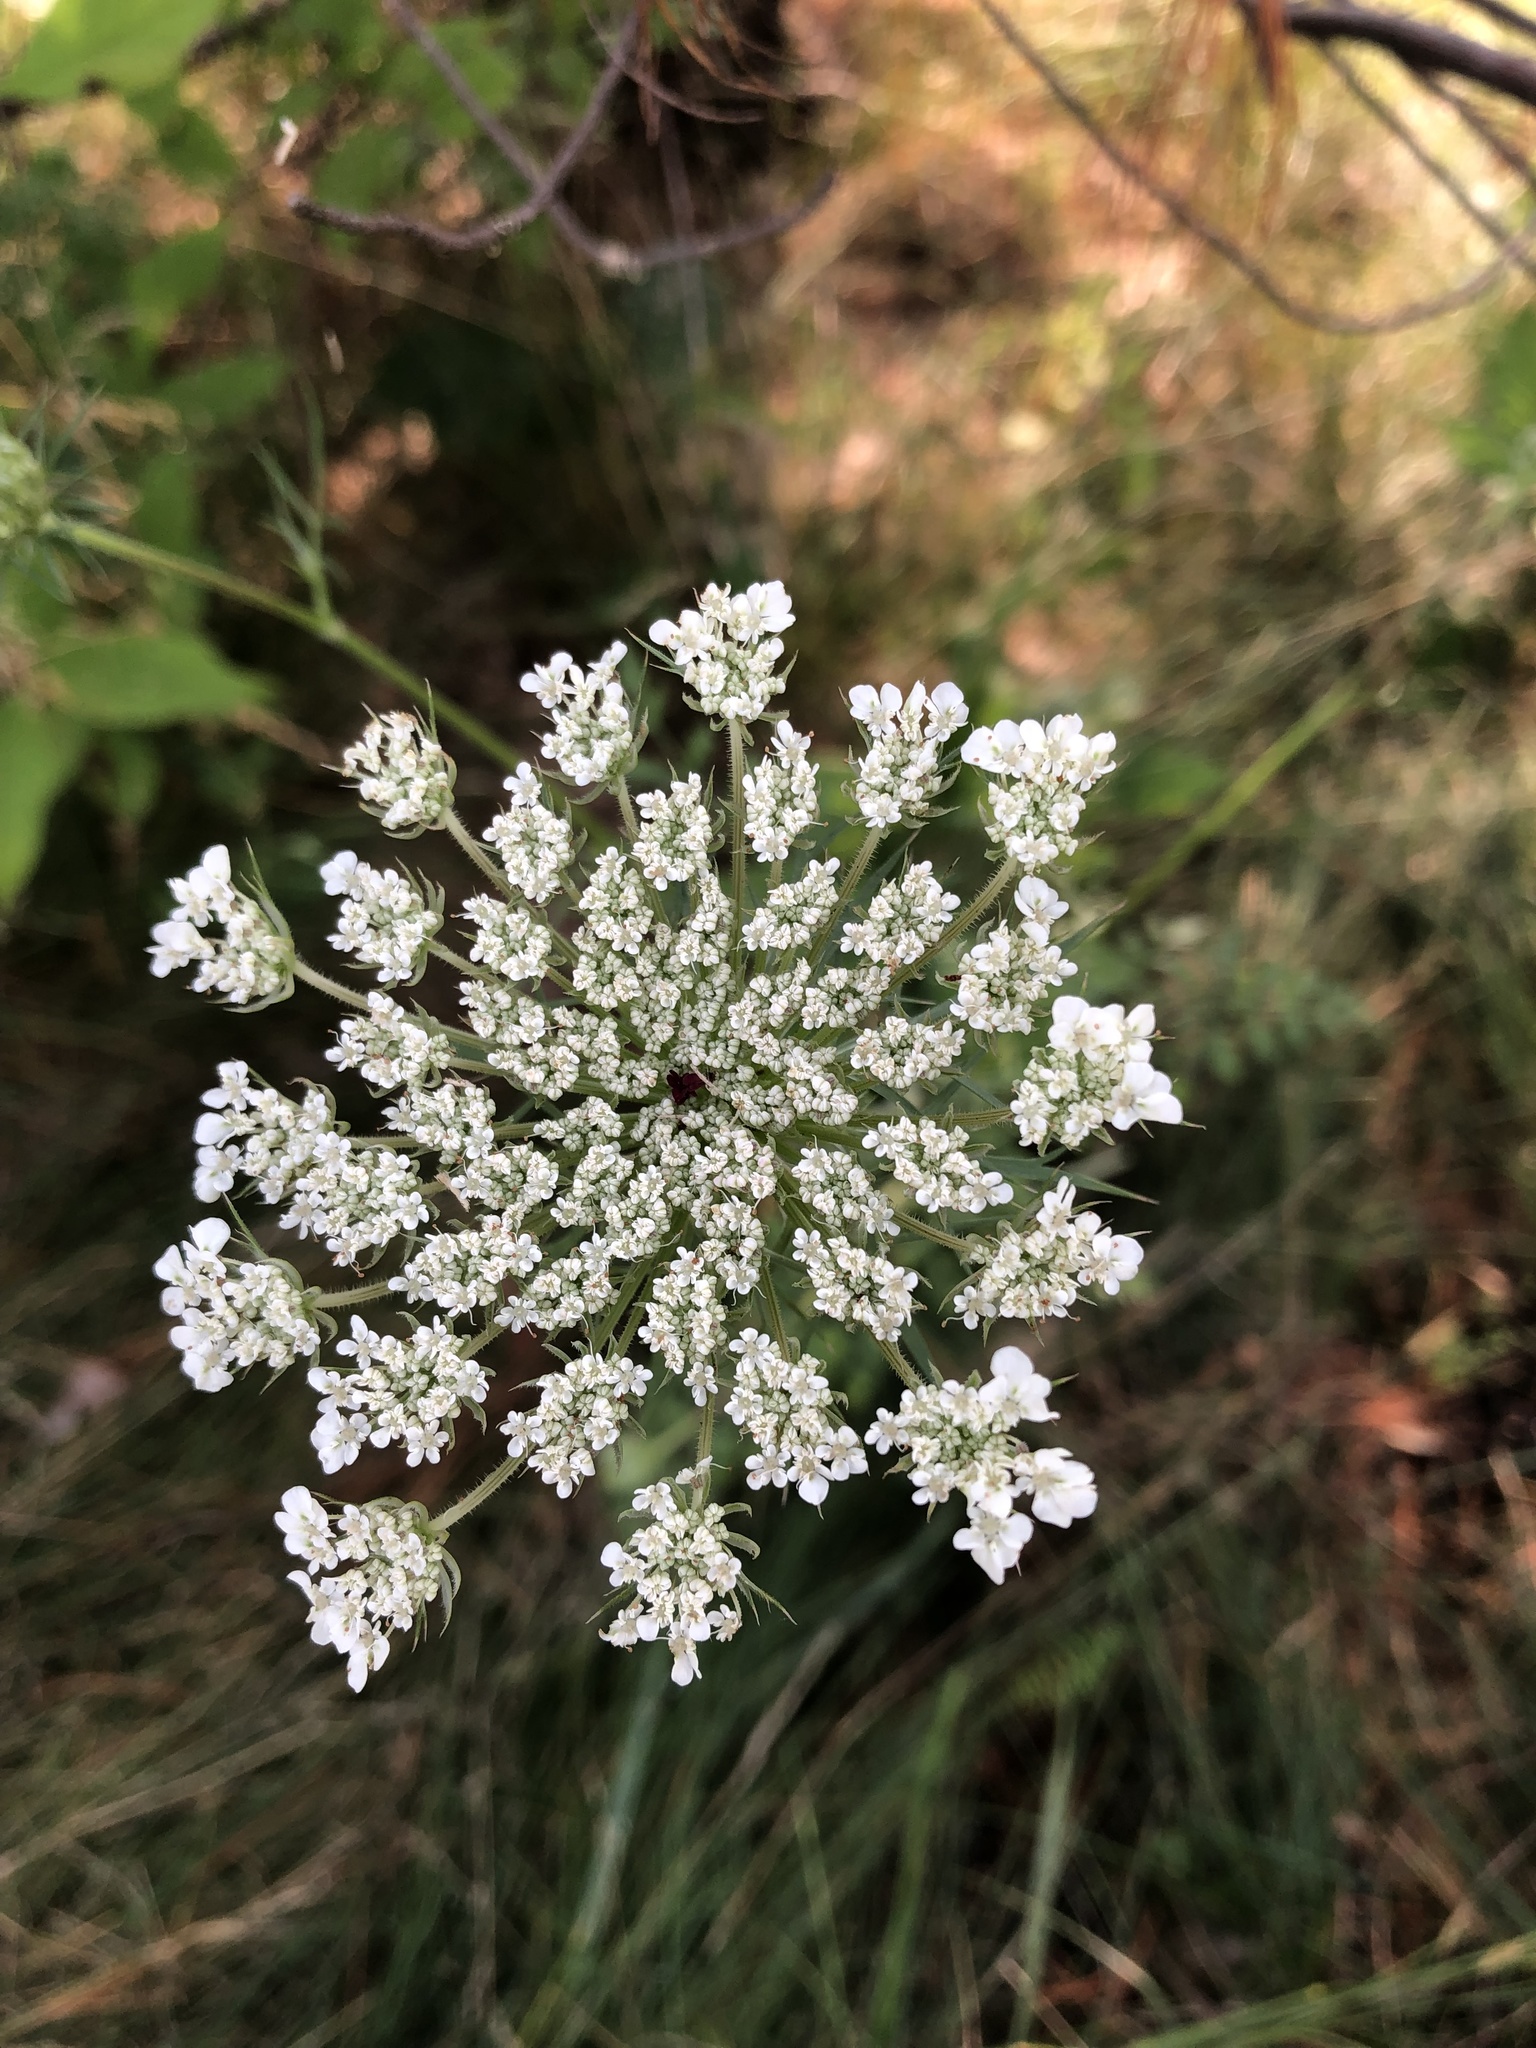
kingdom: Plantae
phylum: Tracheophyta
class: Magnoliopsida
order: Apiales
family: Apiaceae
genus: Daucus
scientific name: Daucus carota
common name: Wild carrot
